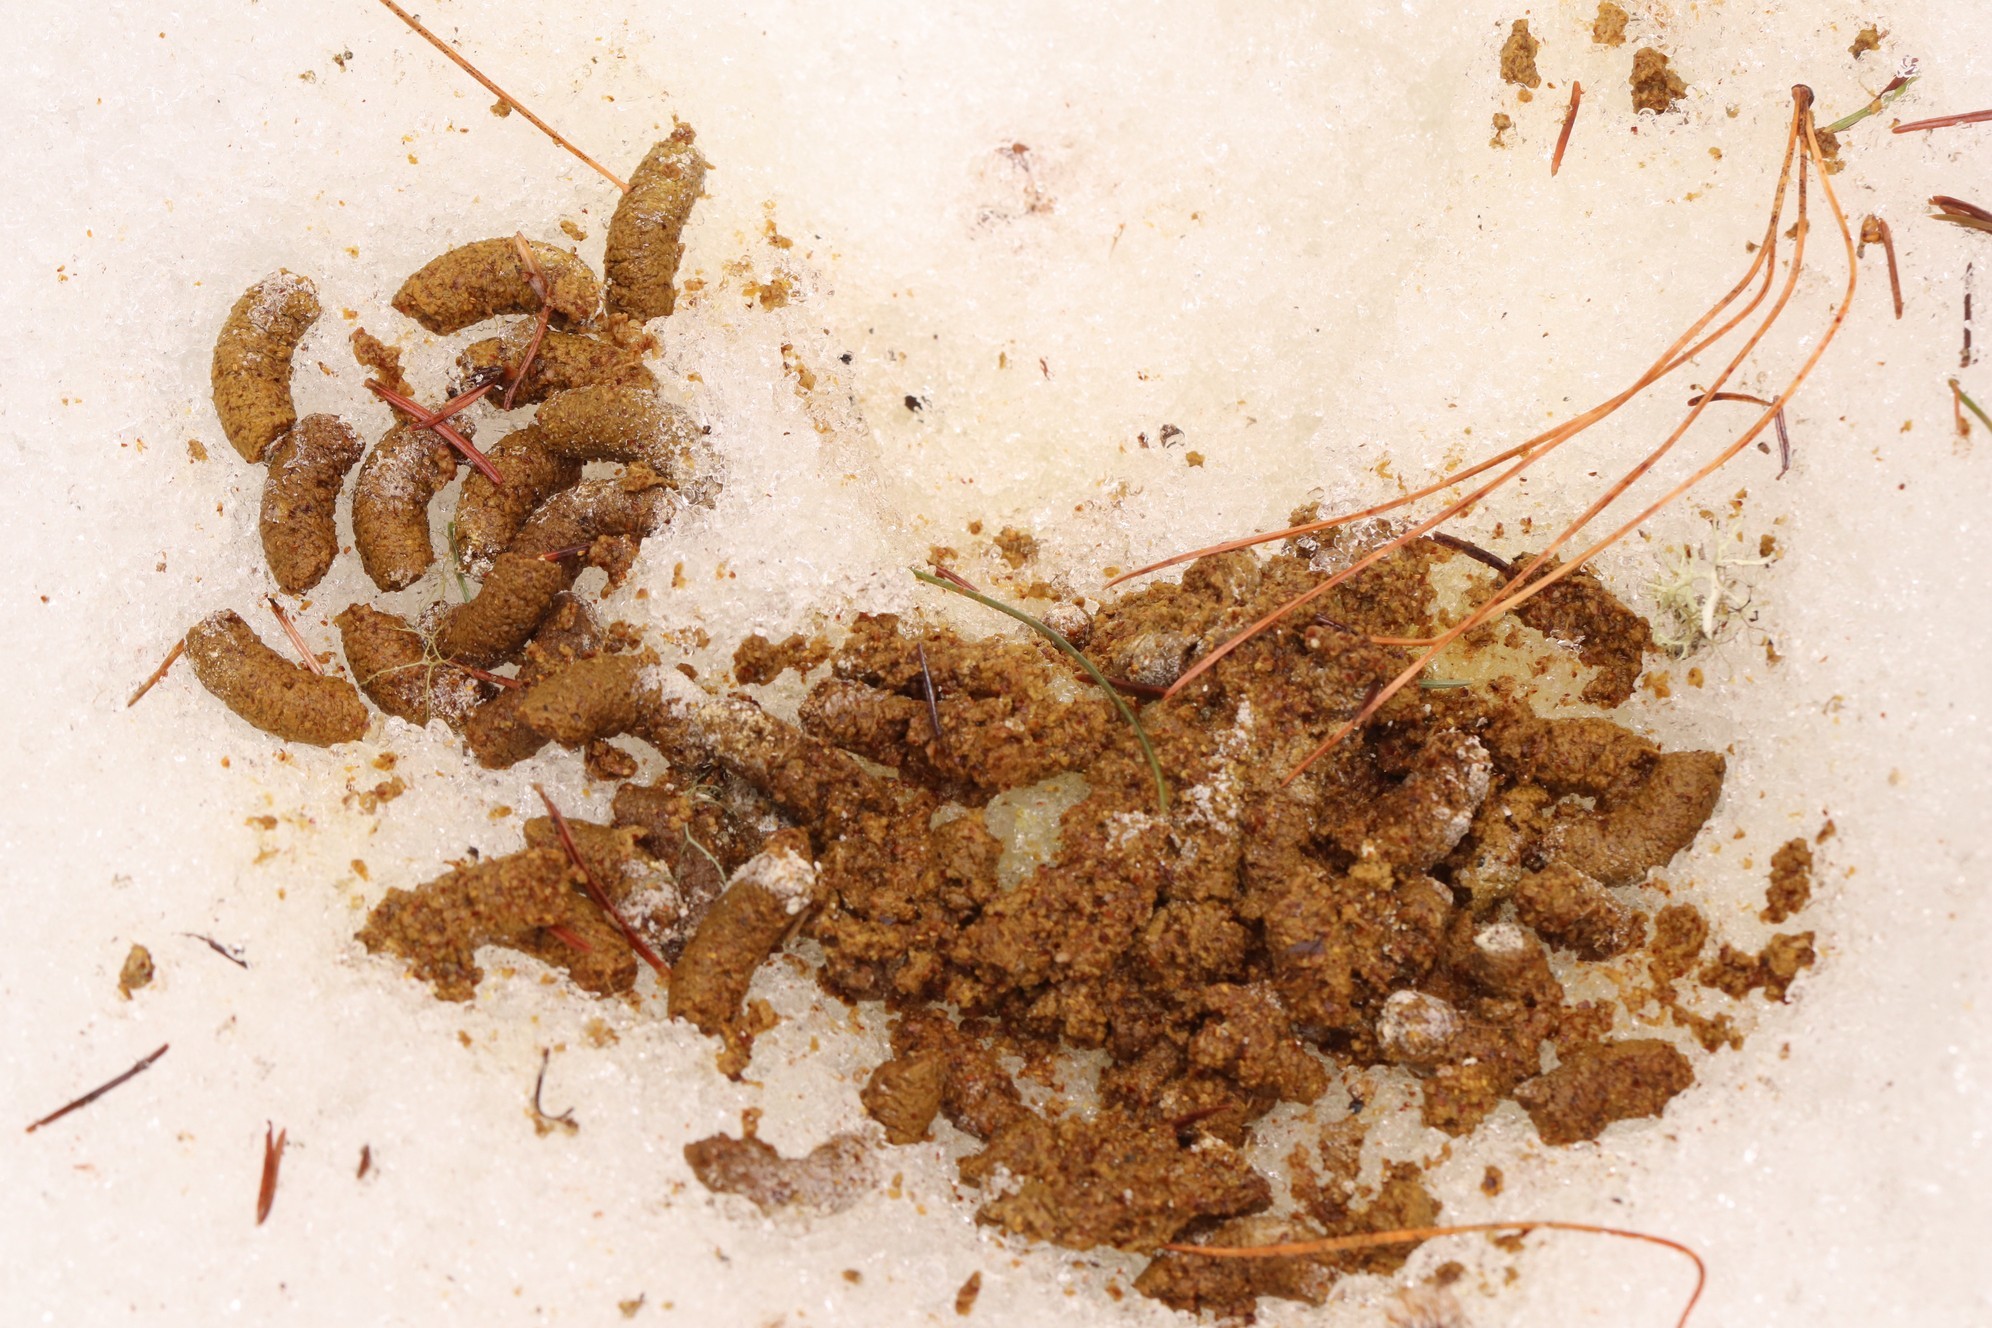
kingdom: Animalia
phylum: Chordata
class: Aves
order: Galliformes
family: Phasianidae
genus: Tetrastes
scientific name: Tetrastes bonasia
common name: Hazel grouse
